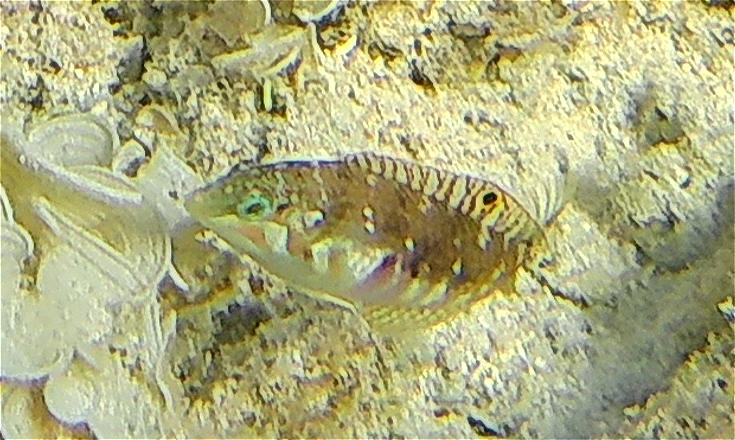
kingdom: Animalia
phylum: Chordata
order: Perciformes
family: Labridae
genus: Halichoeres
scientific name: Halichoeres nebulosus
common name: Clouded wrasse
